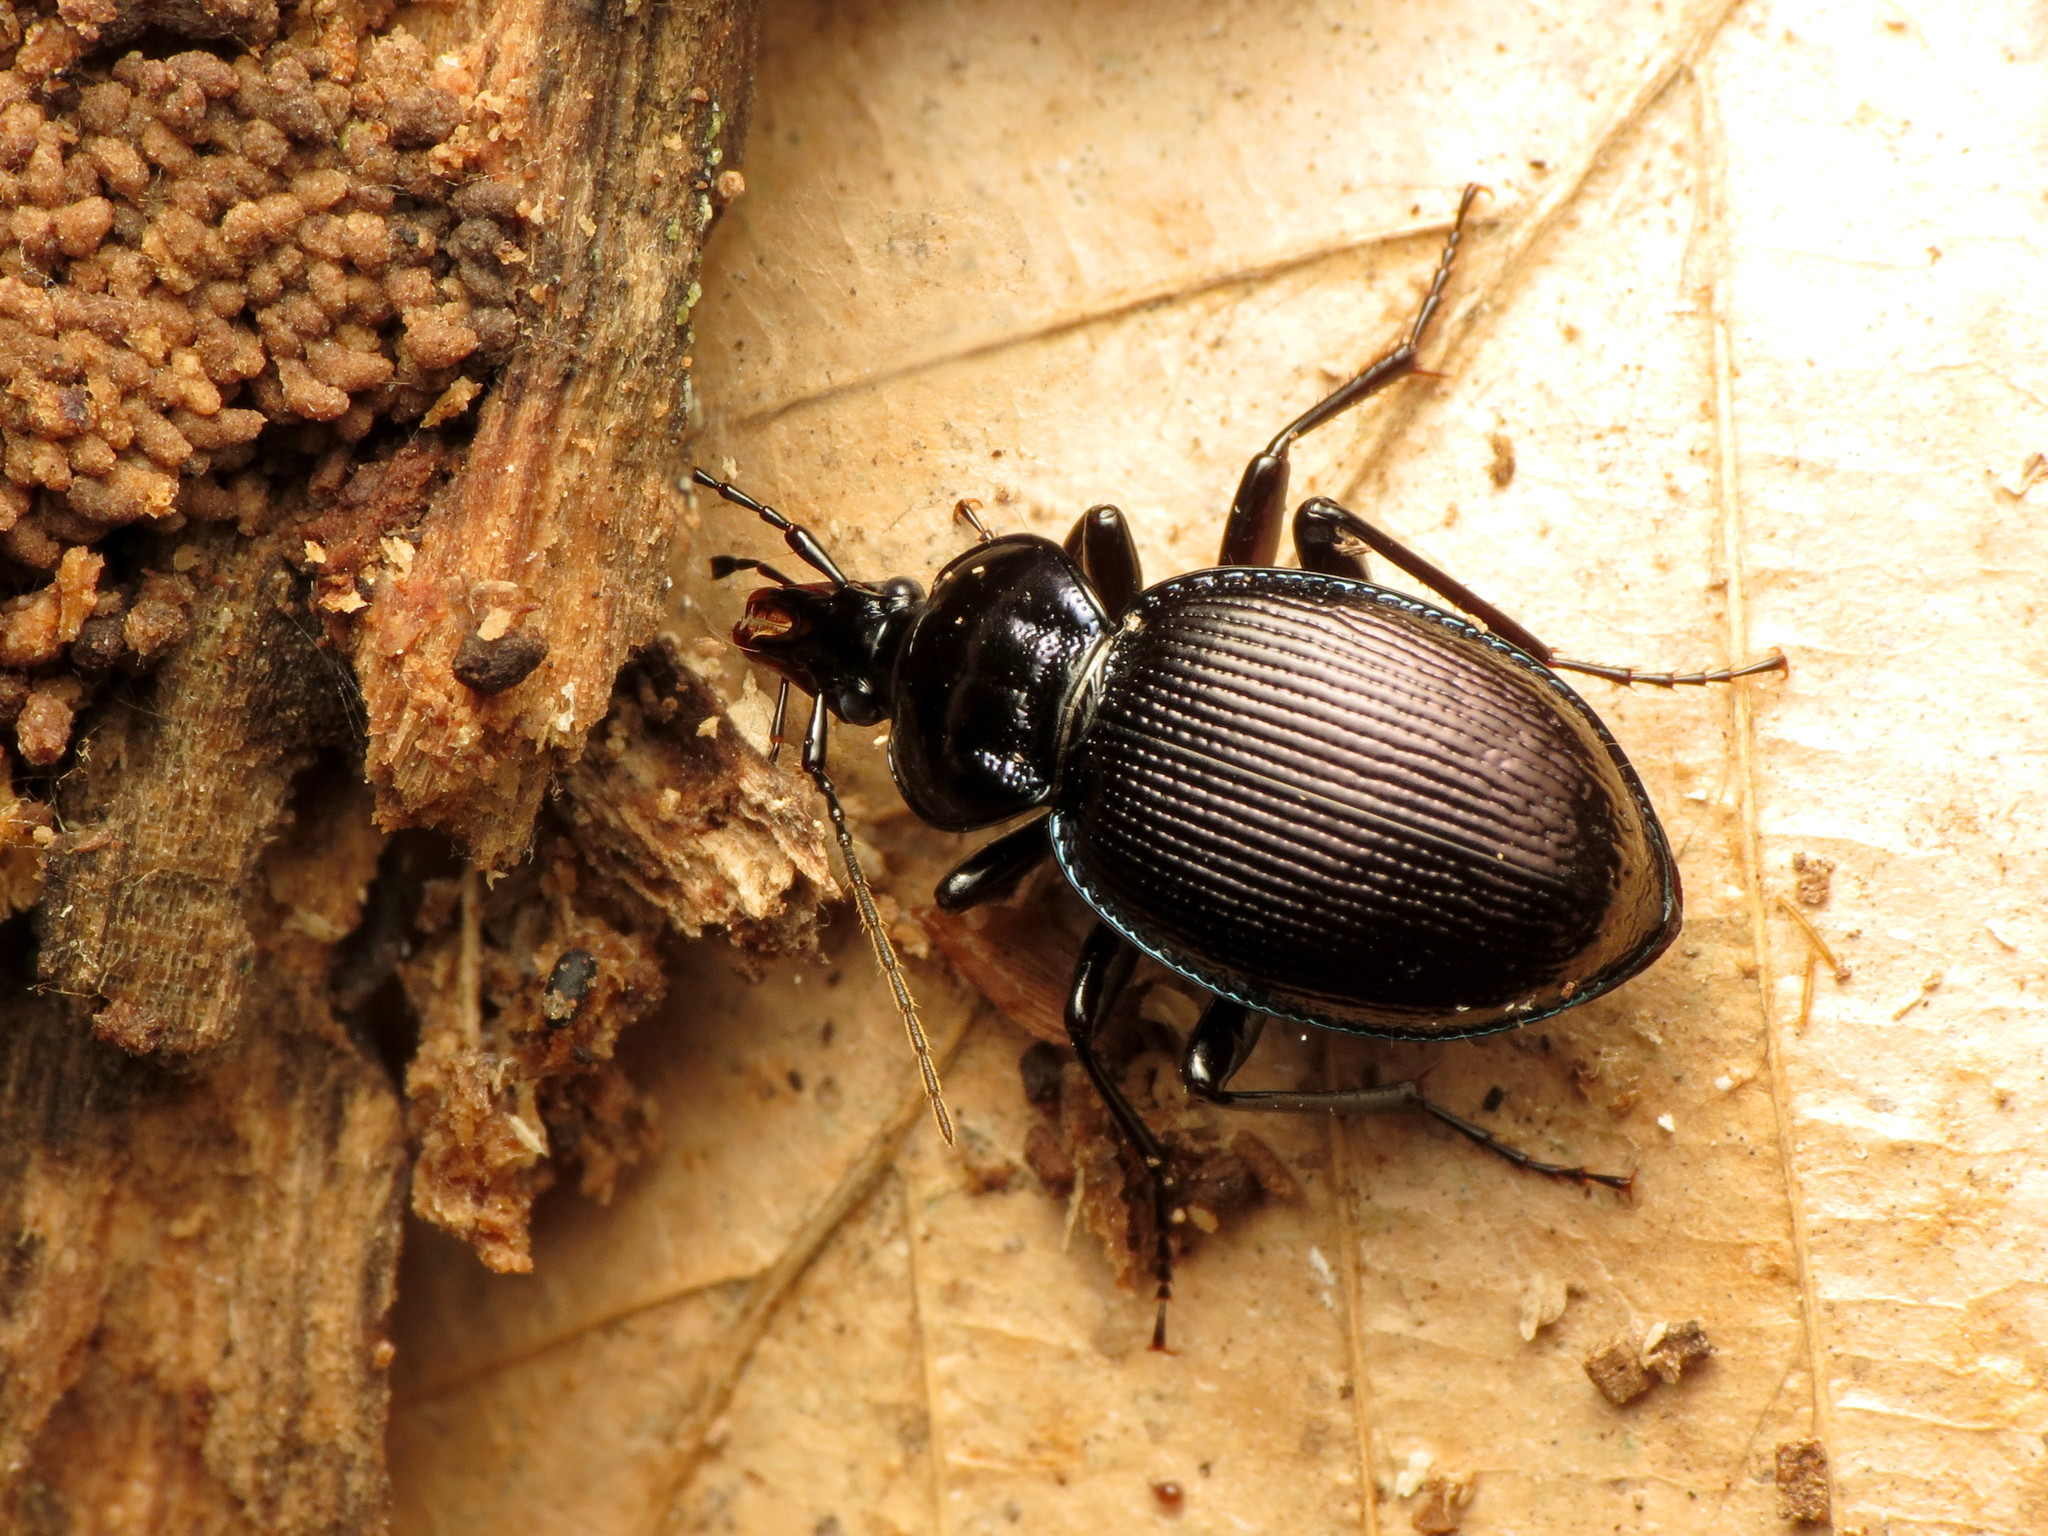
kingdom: Animalia
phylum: Arthropoda
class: Insecta
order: Coleoptera
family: Carabidae
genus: Sphaeroderus
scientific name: Sphaeroderus stenostomus
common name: Small snail-eating ground beetle
